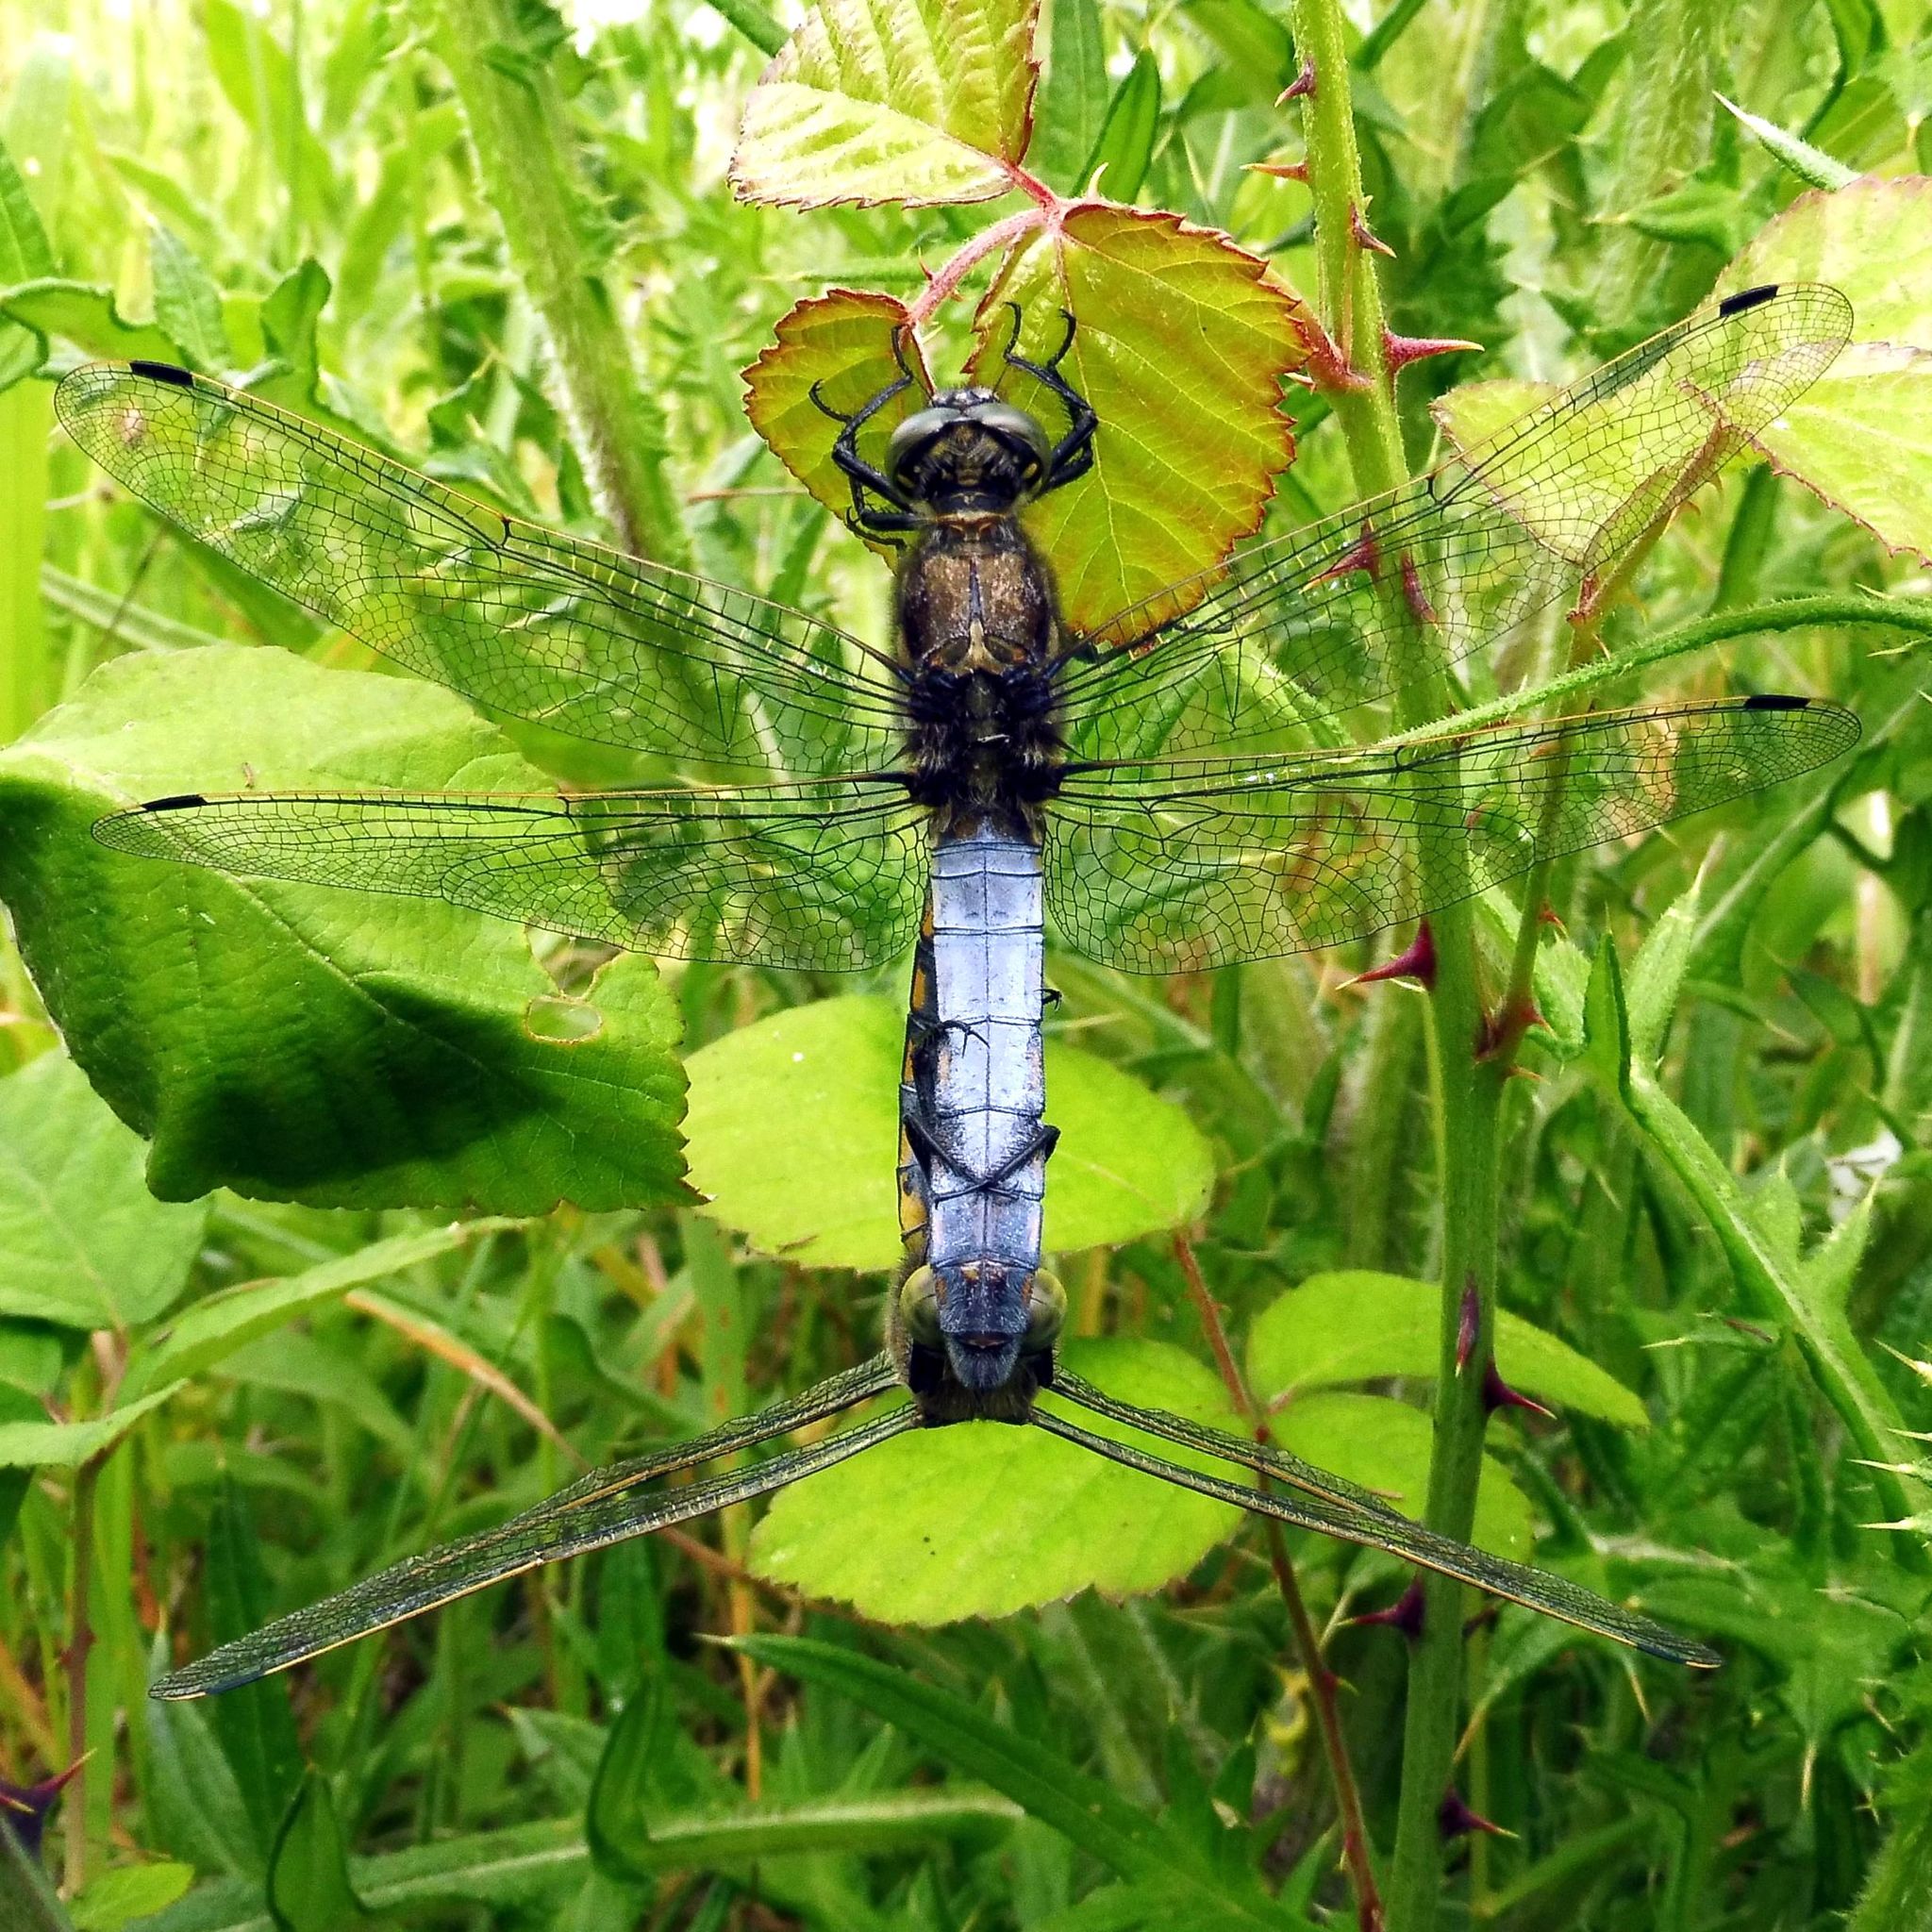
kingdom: Animalia
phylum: Arthropoda
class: Insecta
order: Odonata
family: Libellulidae
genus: Orthetrum
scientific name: Orthetrum cancellatum
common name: Black-tailed skimmer
